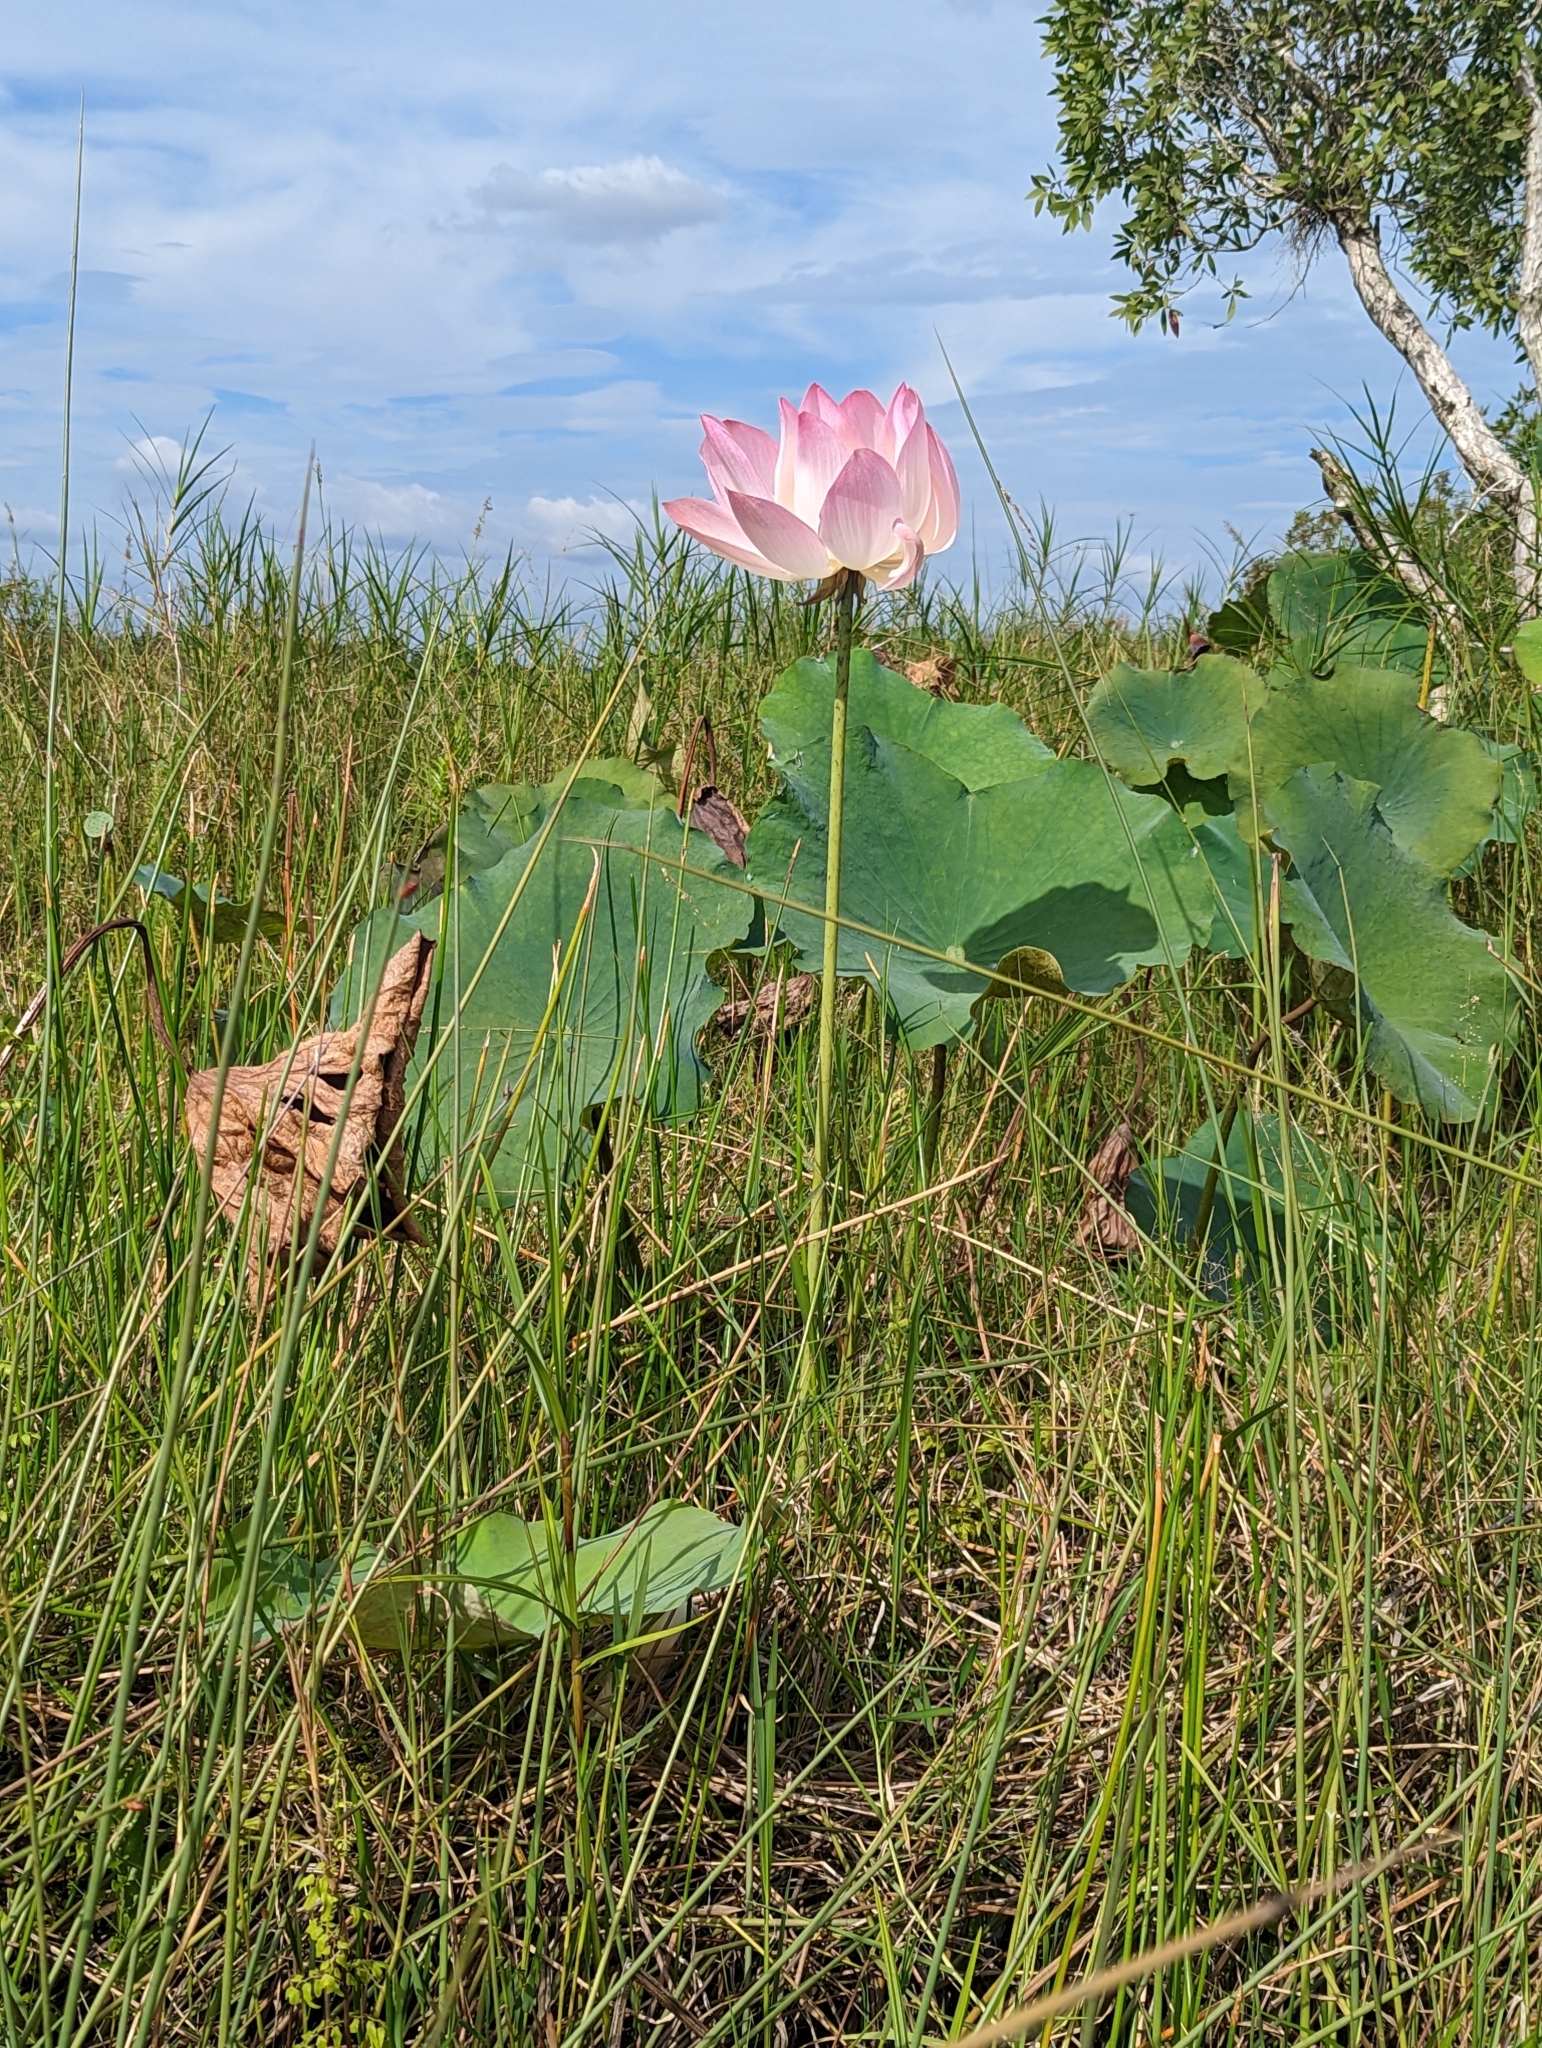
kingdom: Plantae
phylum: Tracheophyta
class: Magnoliopsida
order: Proteales
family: Nelumbonaceae
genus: Nelumbo
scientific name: Nelumbo nucifera
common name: Sacred lotus
